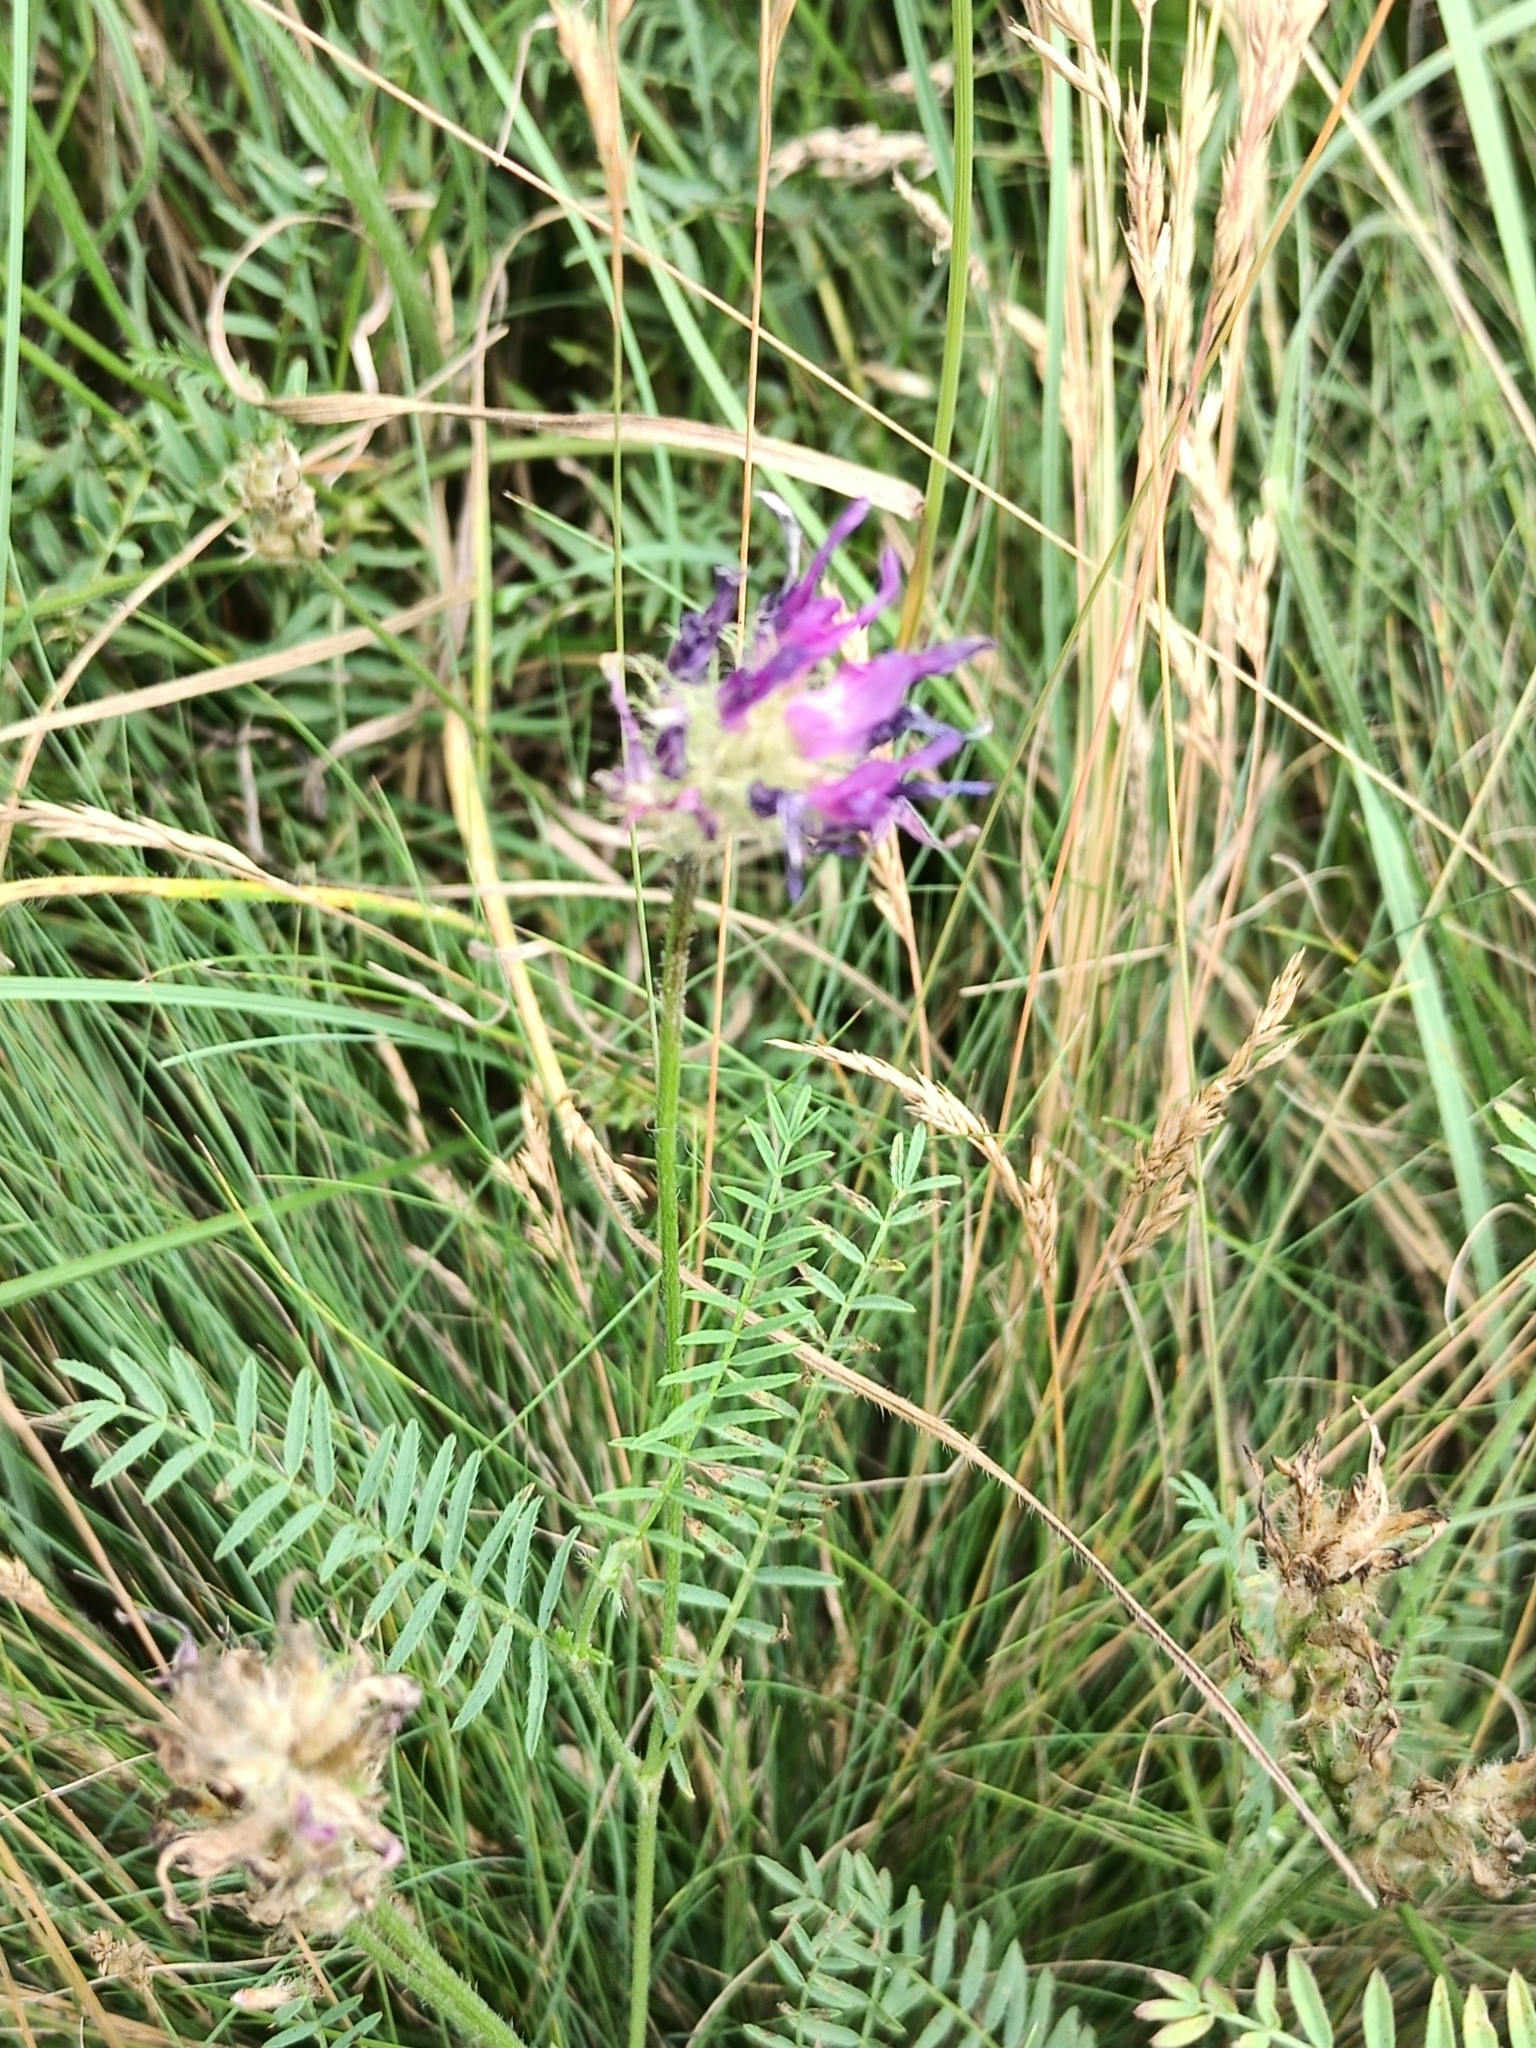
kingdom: Plantae
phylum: Tracheophyta
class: Magnoliopsida
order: Fabales
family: Fabaceae
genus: Astragalus
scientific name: Astragalus onobrychis
